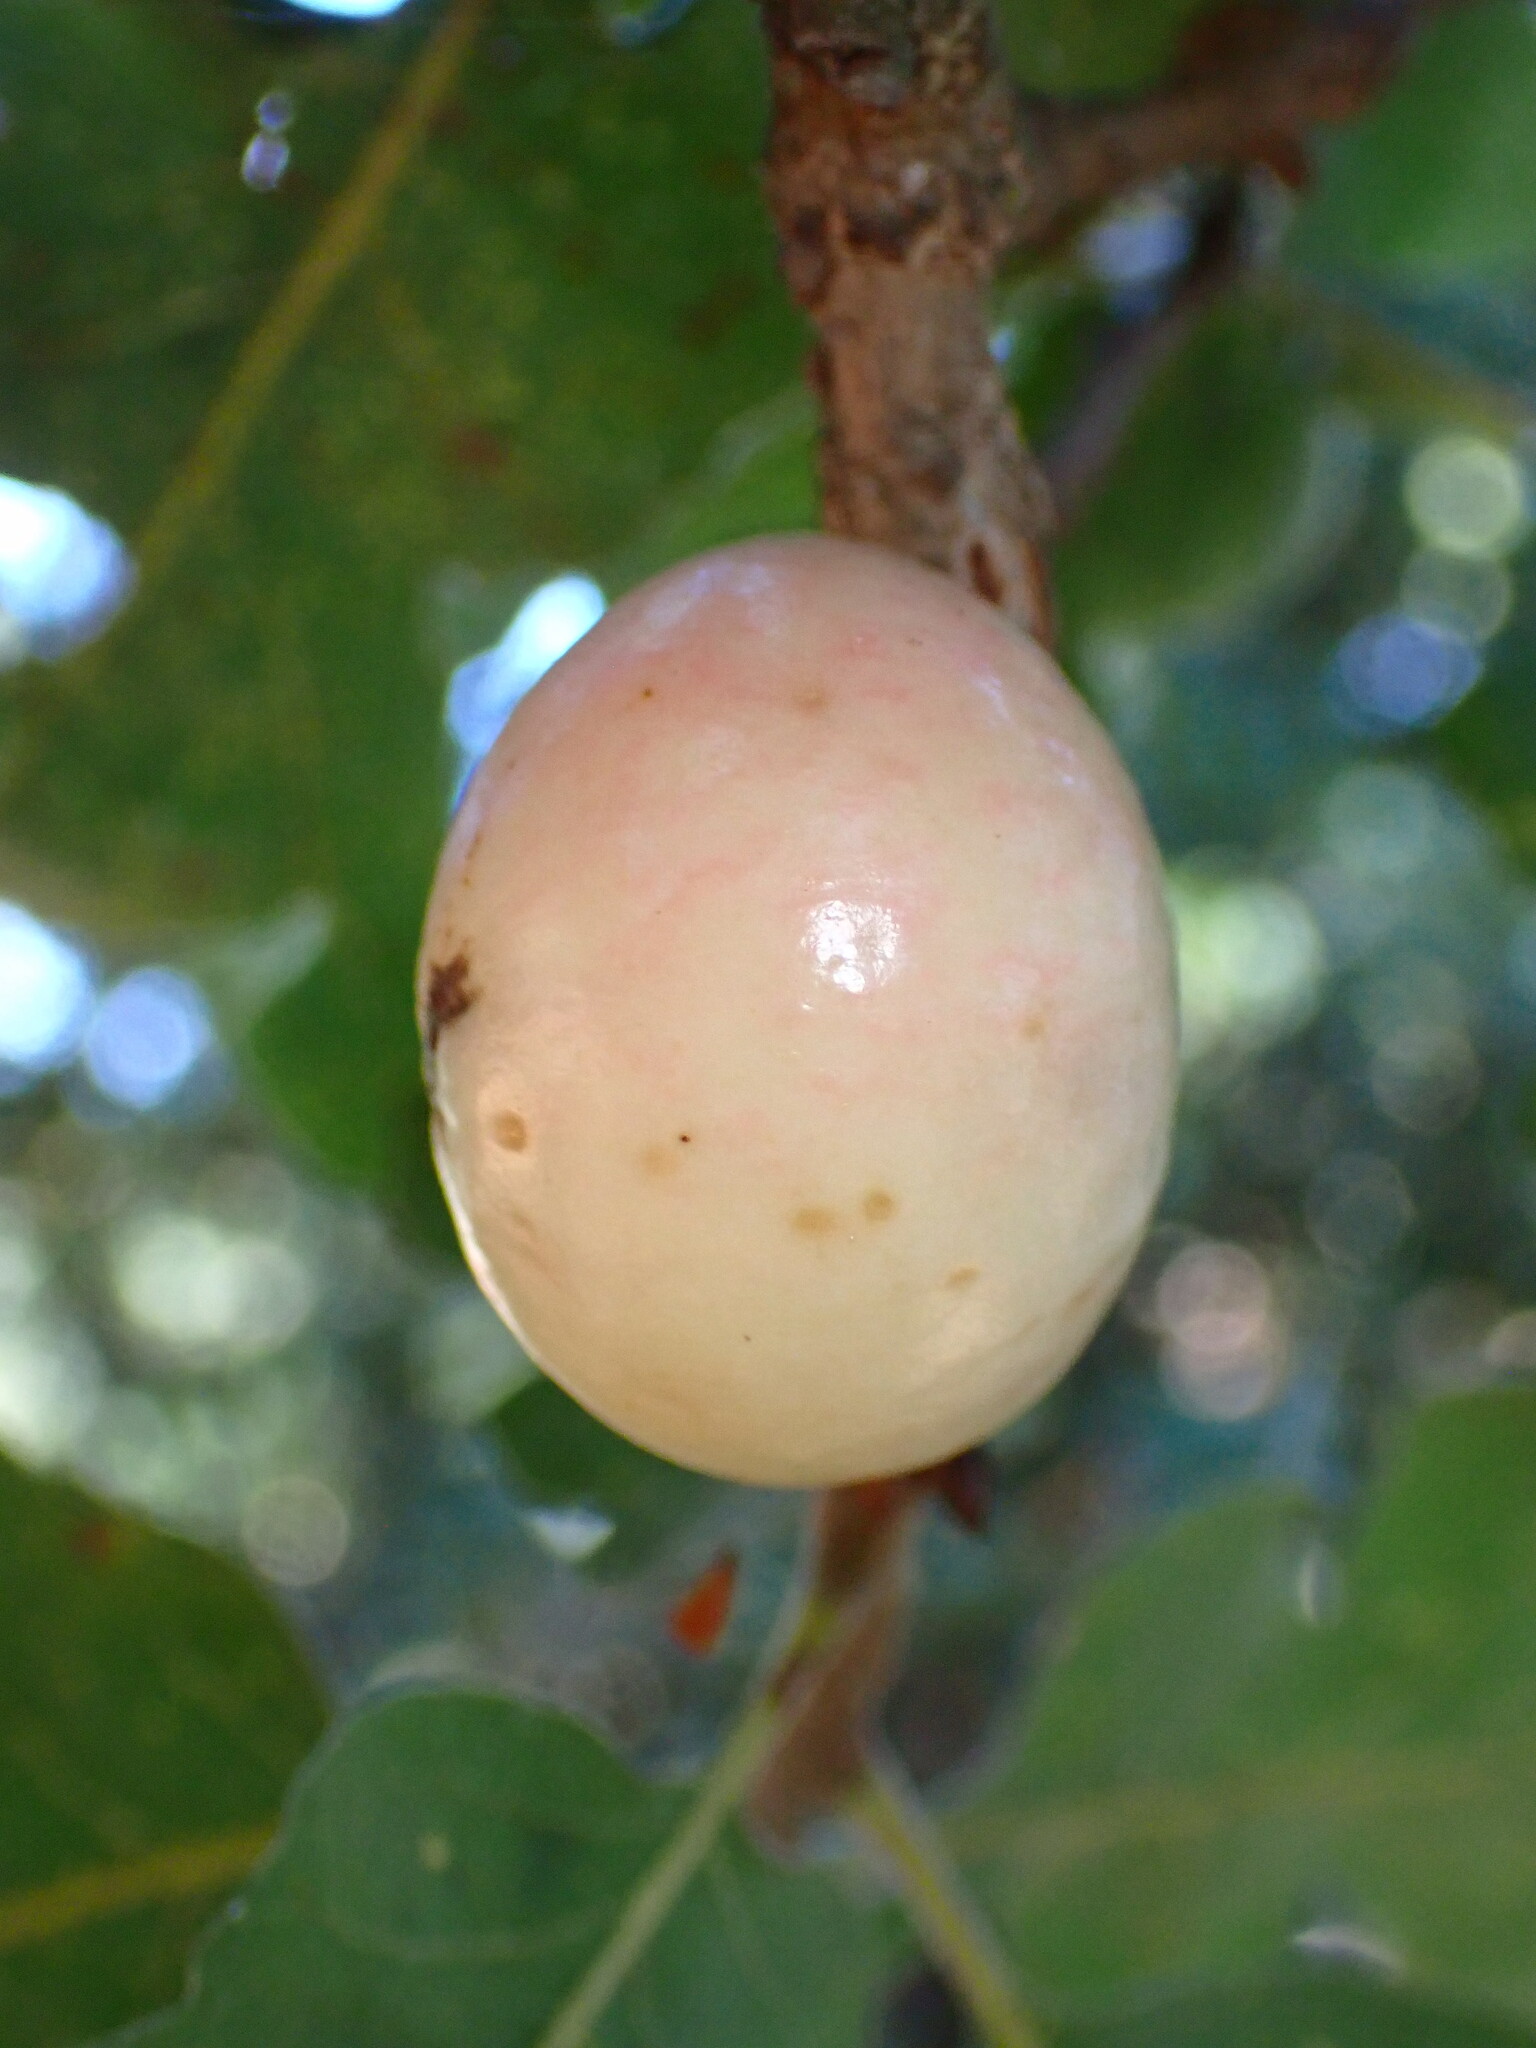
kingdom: Animalia
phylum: Arthropoda
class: Insecta
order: Hymenoptera
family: Cynipidae
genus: Andricus
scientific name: Andricus quercuscalifornicus
